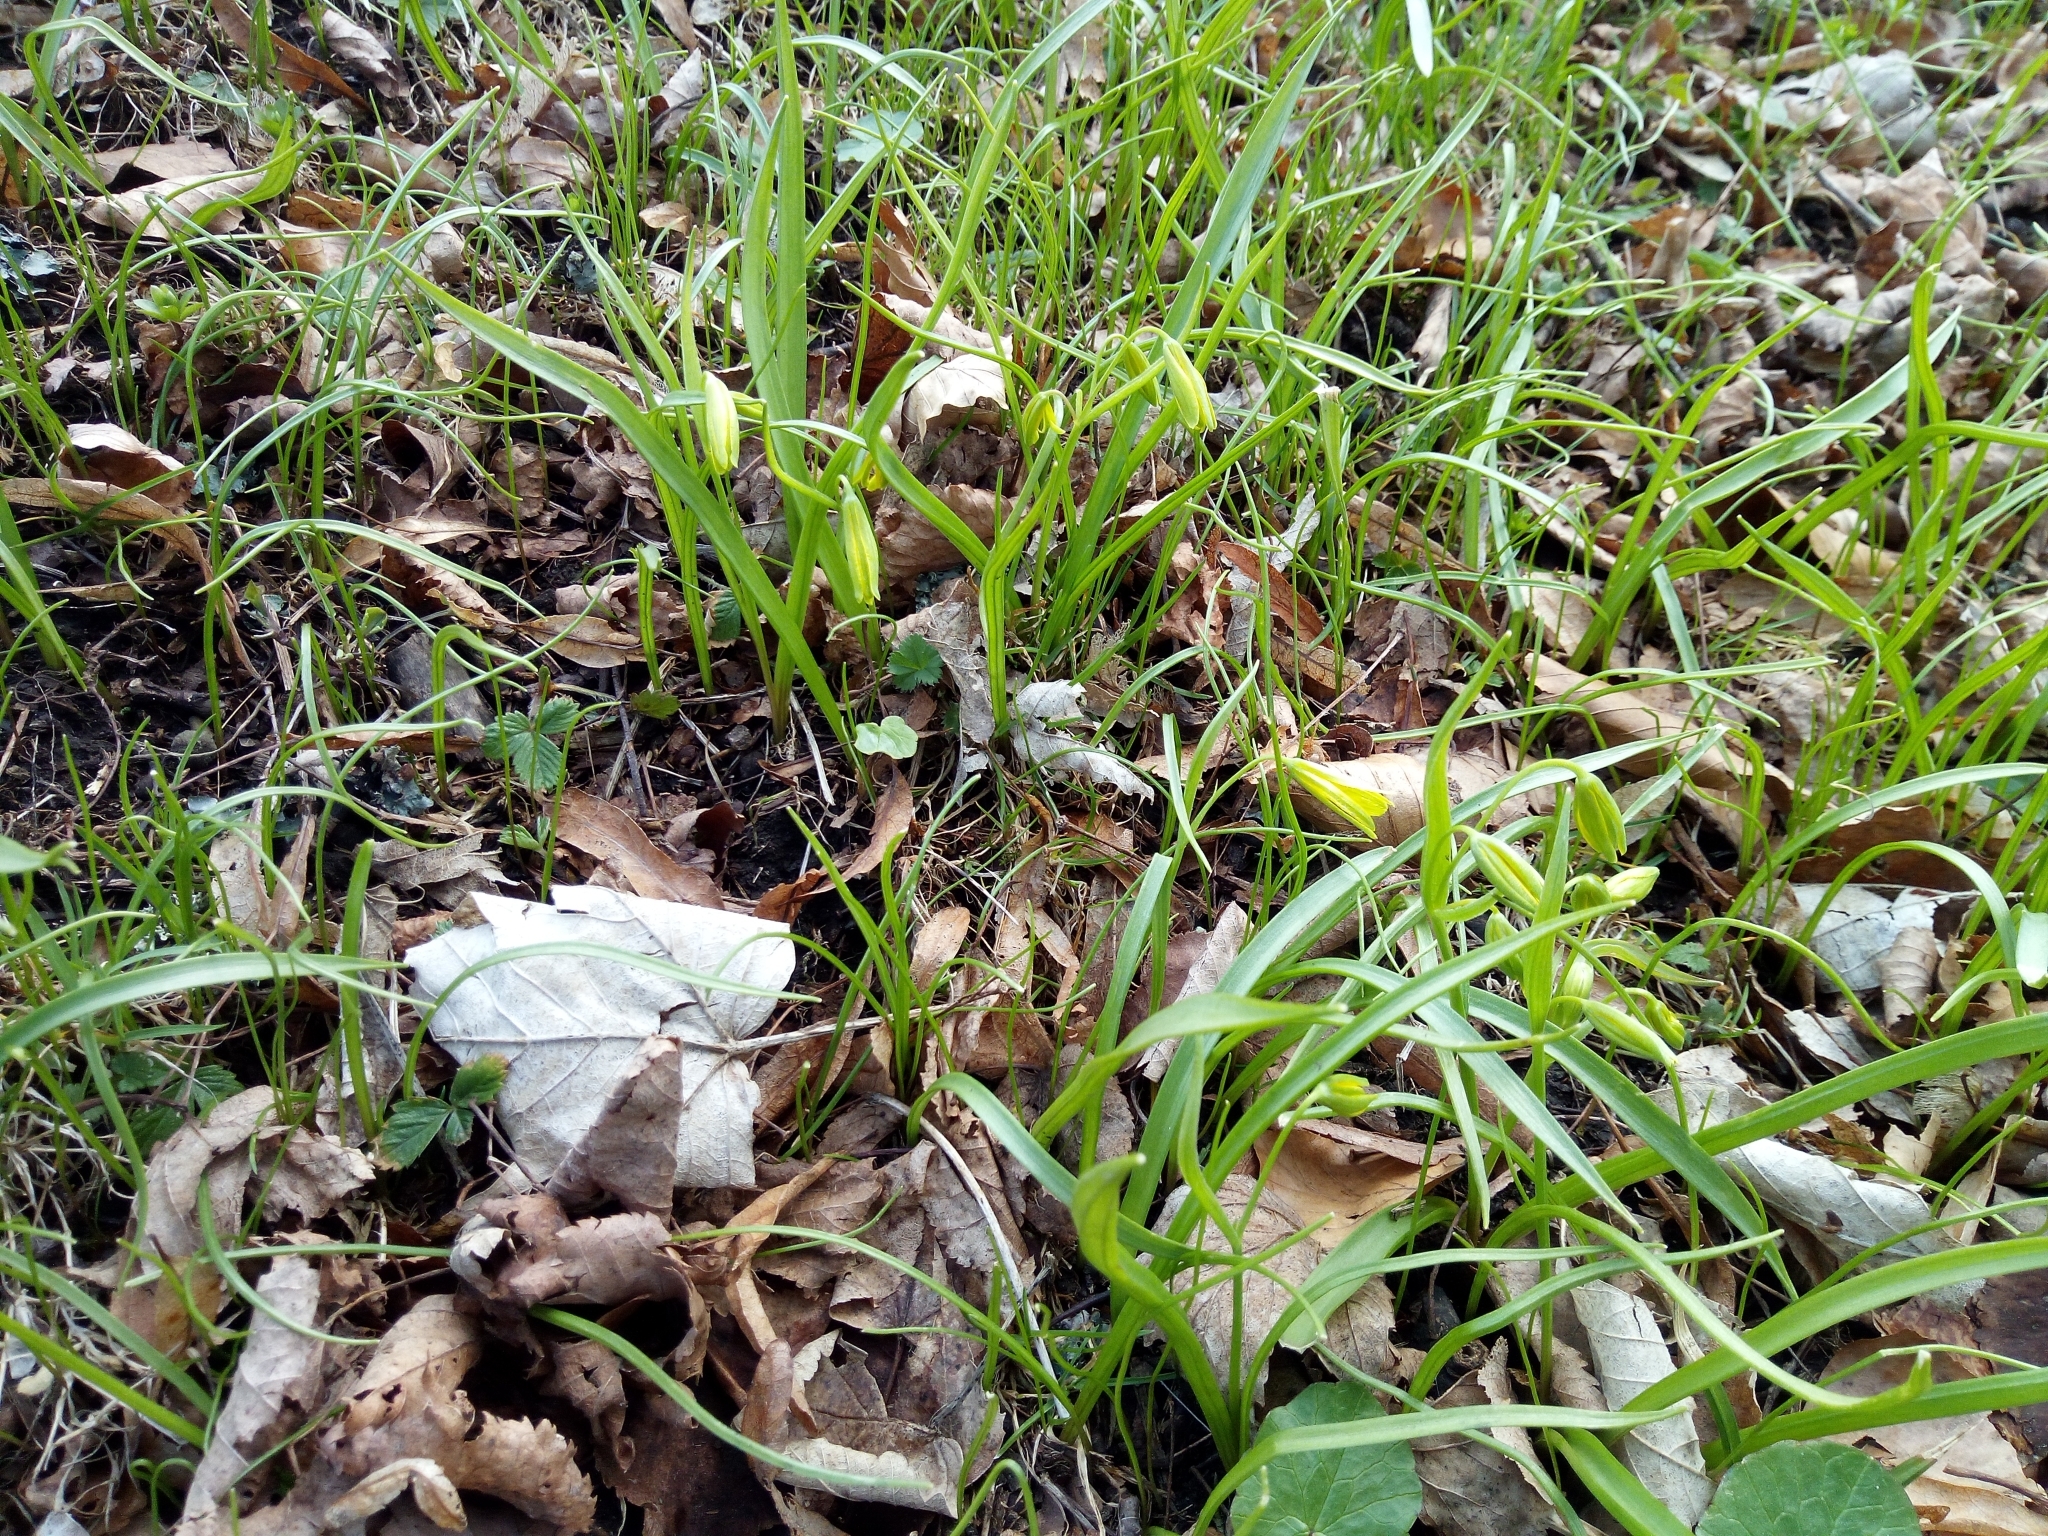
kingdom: Plantae
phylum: Tracheophyta
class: Liliopsida
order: Liliales
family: Liliaceae
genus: Gagea
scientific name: Gagea lutea
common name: Yellow star-of-bethlehem
